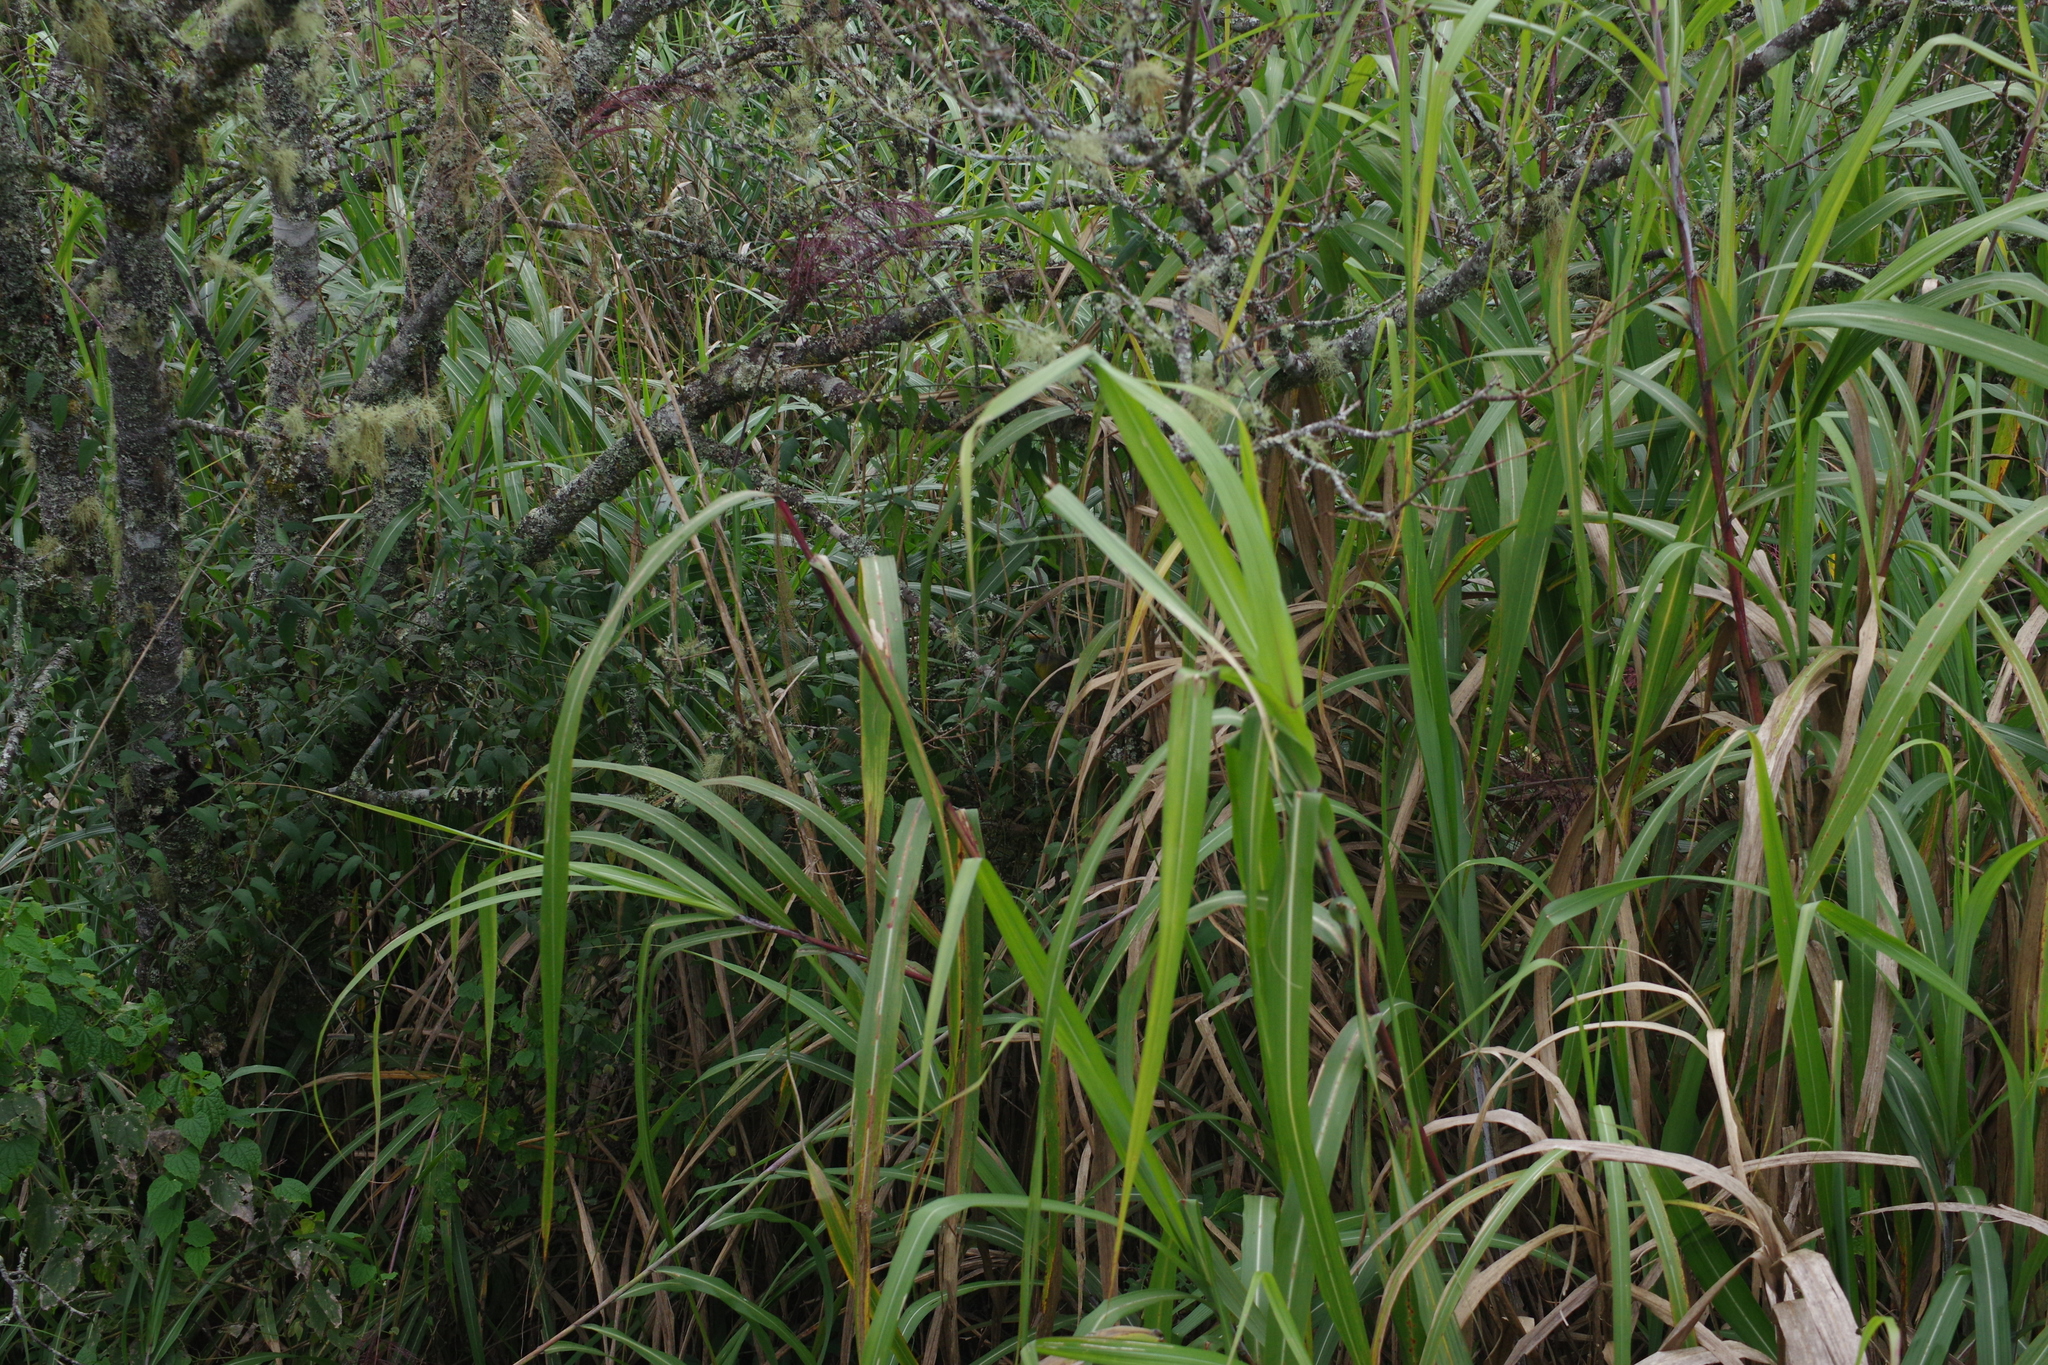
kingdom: Animalia
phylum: Chordata
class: Aves
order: Passeriformes
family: Leiothrichidae
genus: Liocichla
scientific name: Liocichla steerii
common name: Steere's liocichla
